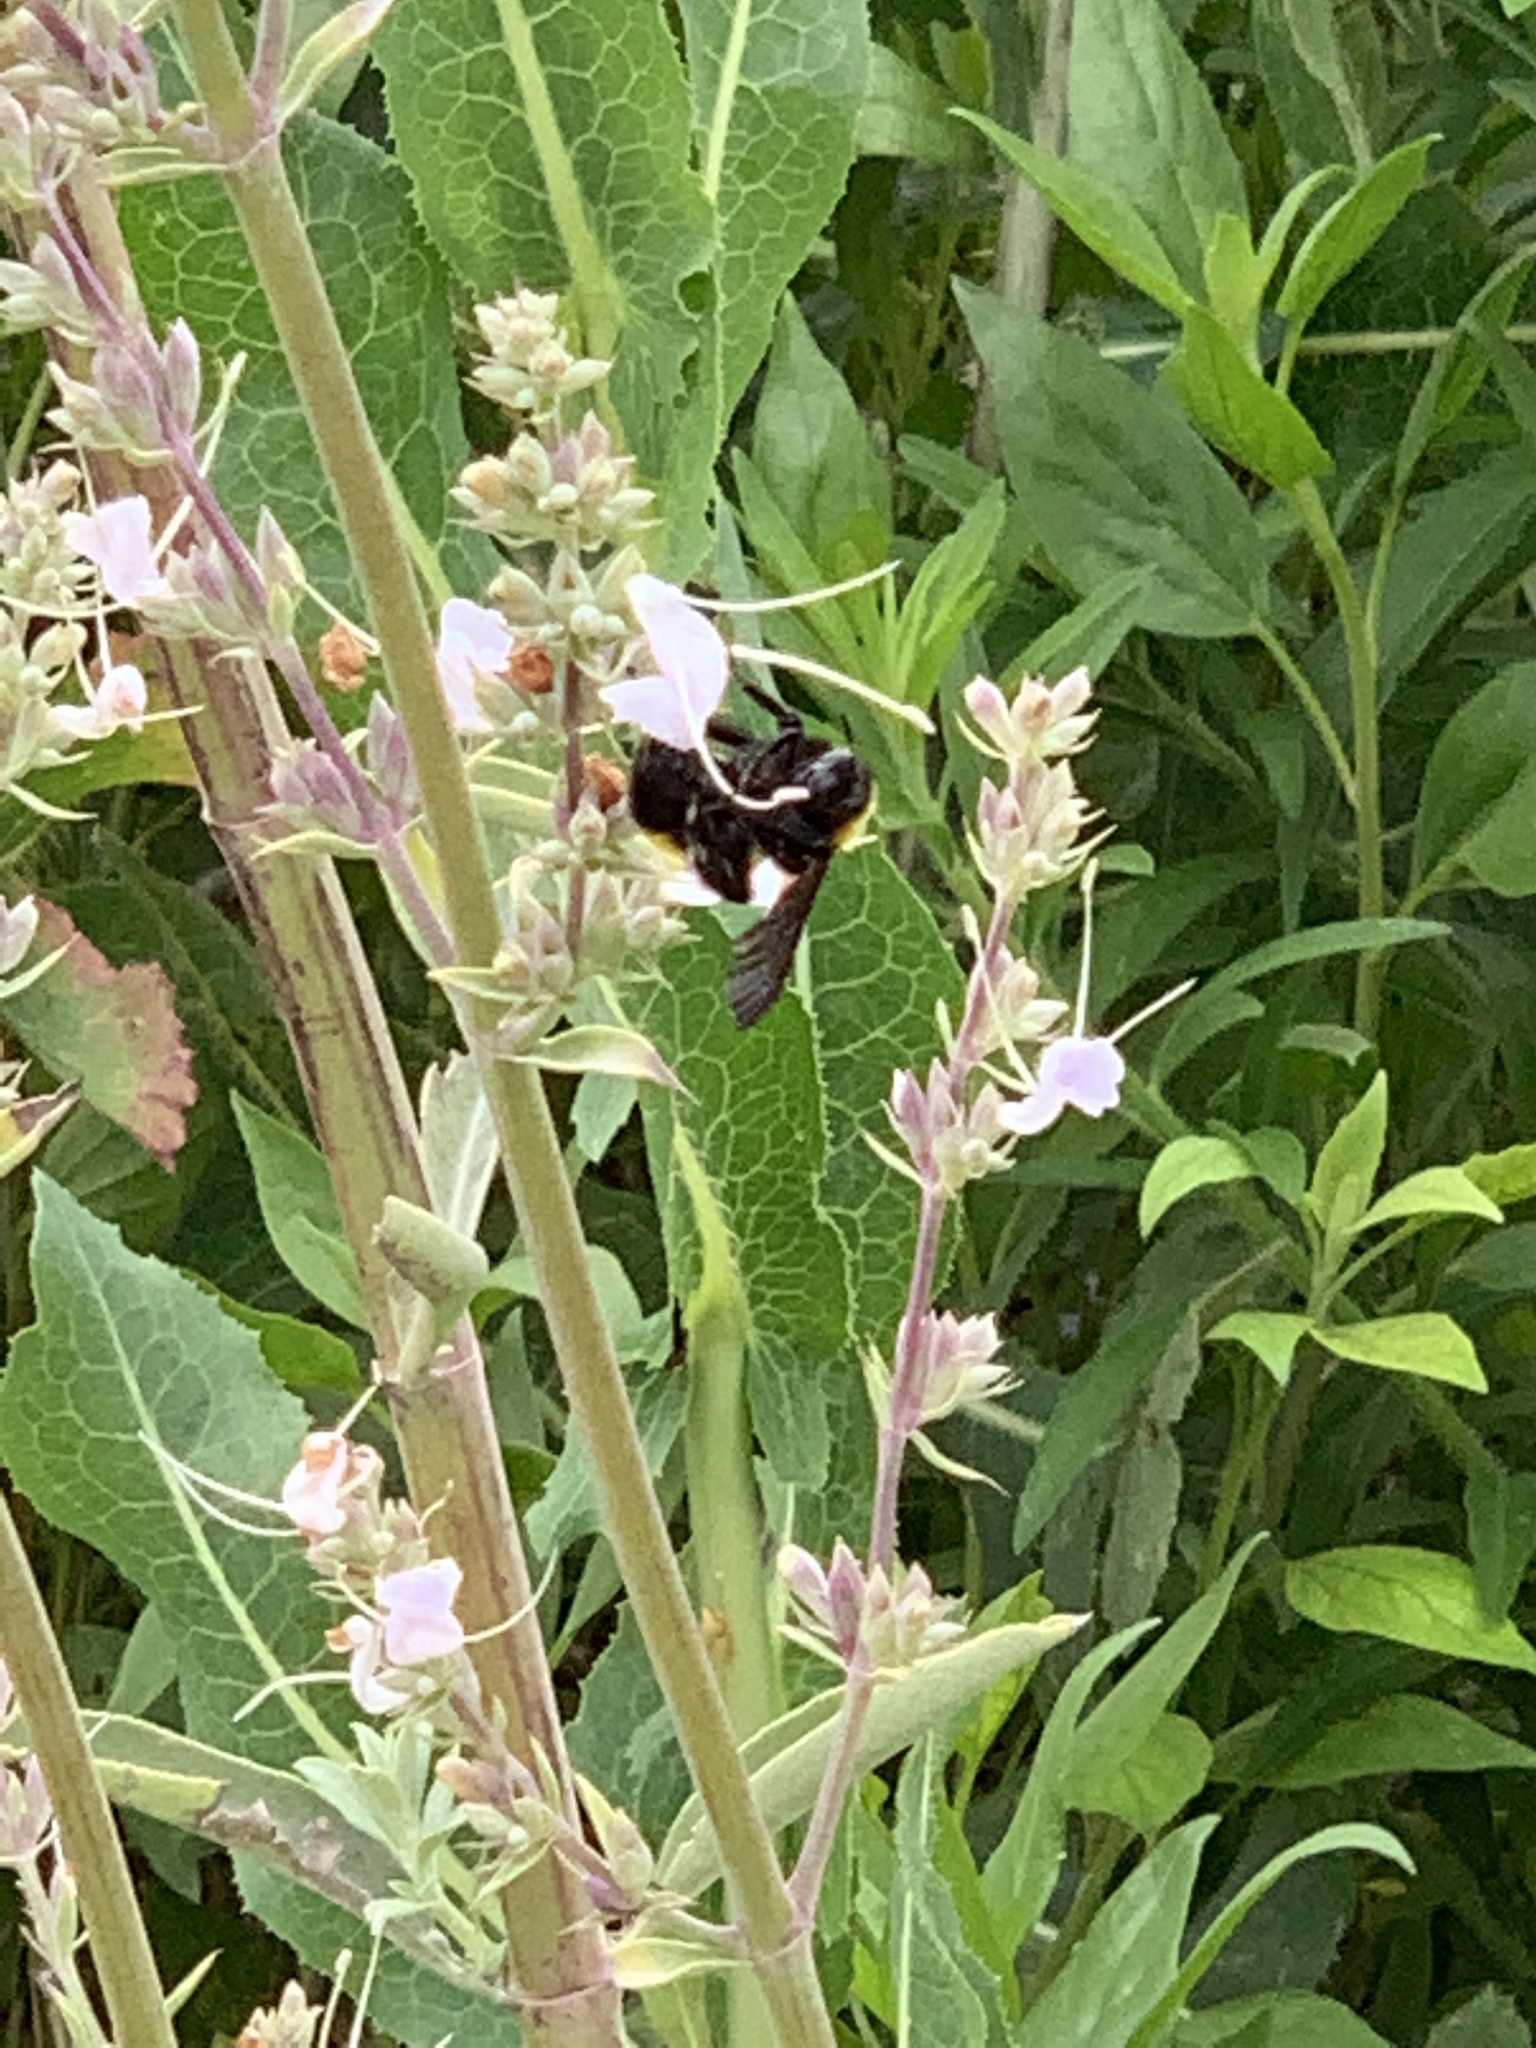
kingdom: Animalia
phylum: Arthropoda
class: Insecta
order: Hymenoptera
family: Apidae
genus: Bombus
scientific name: Bombus sonorus
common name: Sonoran bumble bee
